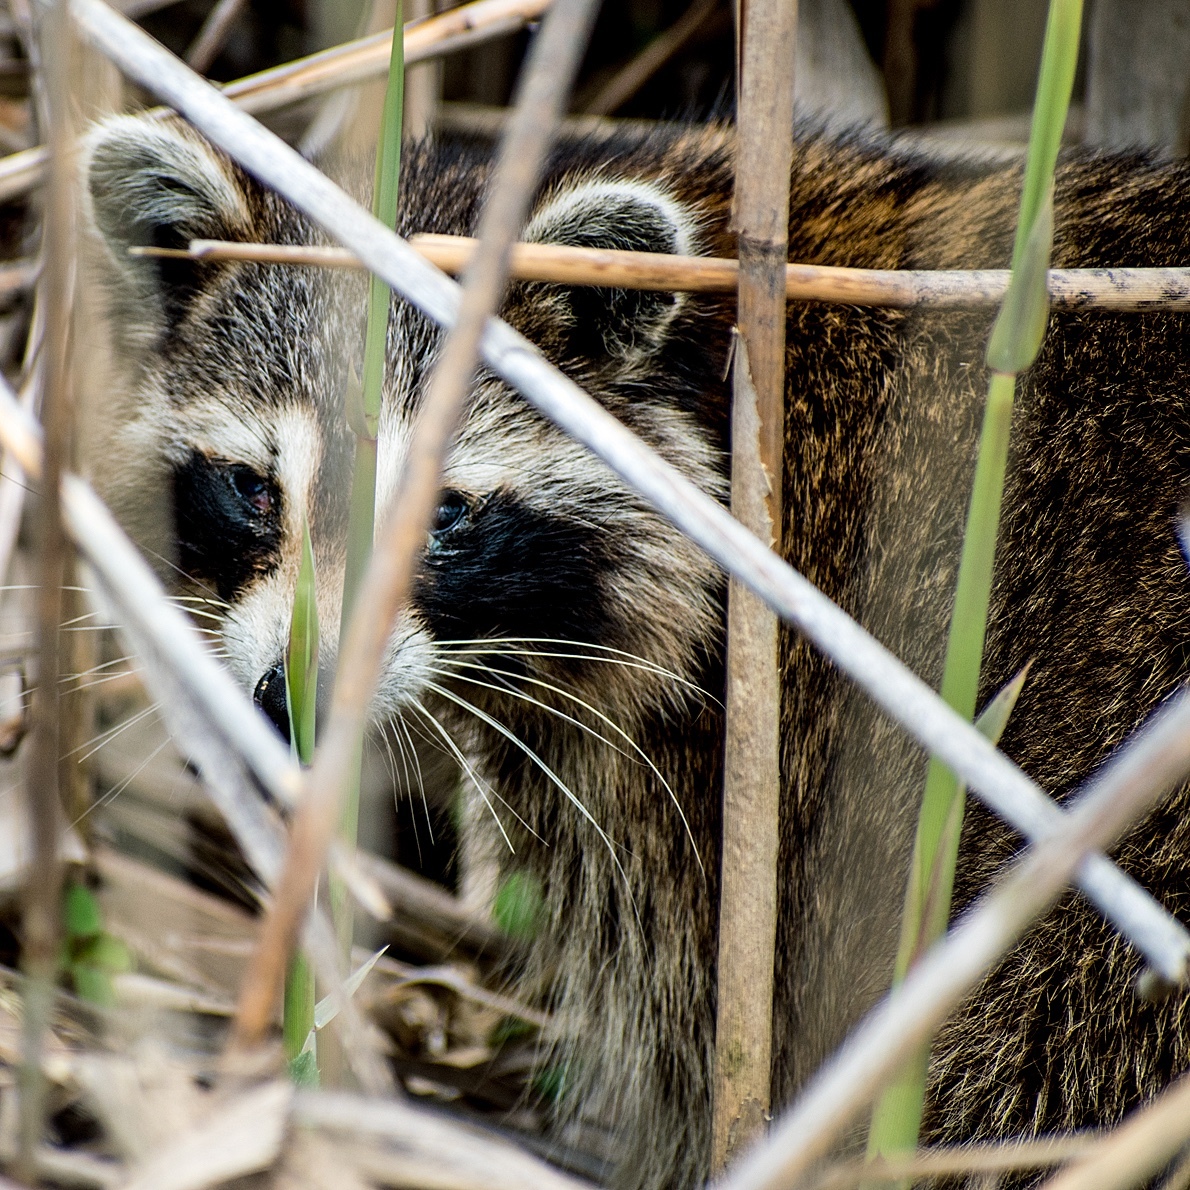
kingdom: Animalia
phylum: Chordata
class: Mammalia
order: Carnivora
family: Procyonidae
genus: Procyon
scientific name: Procyon lotor
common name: Raccoon
